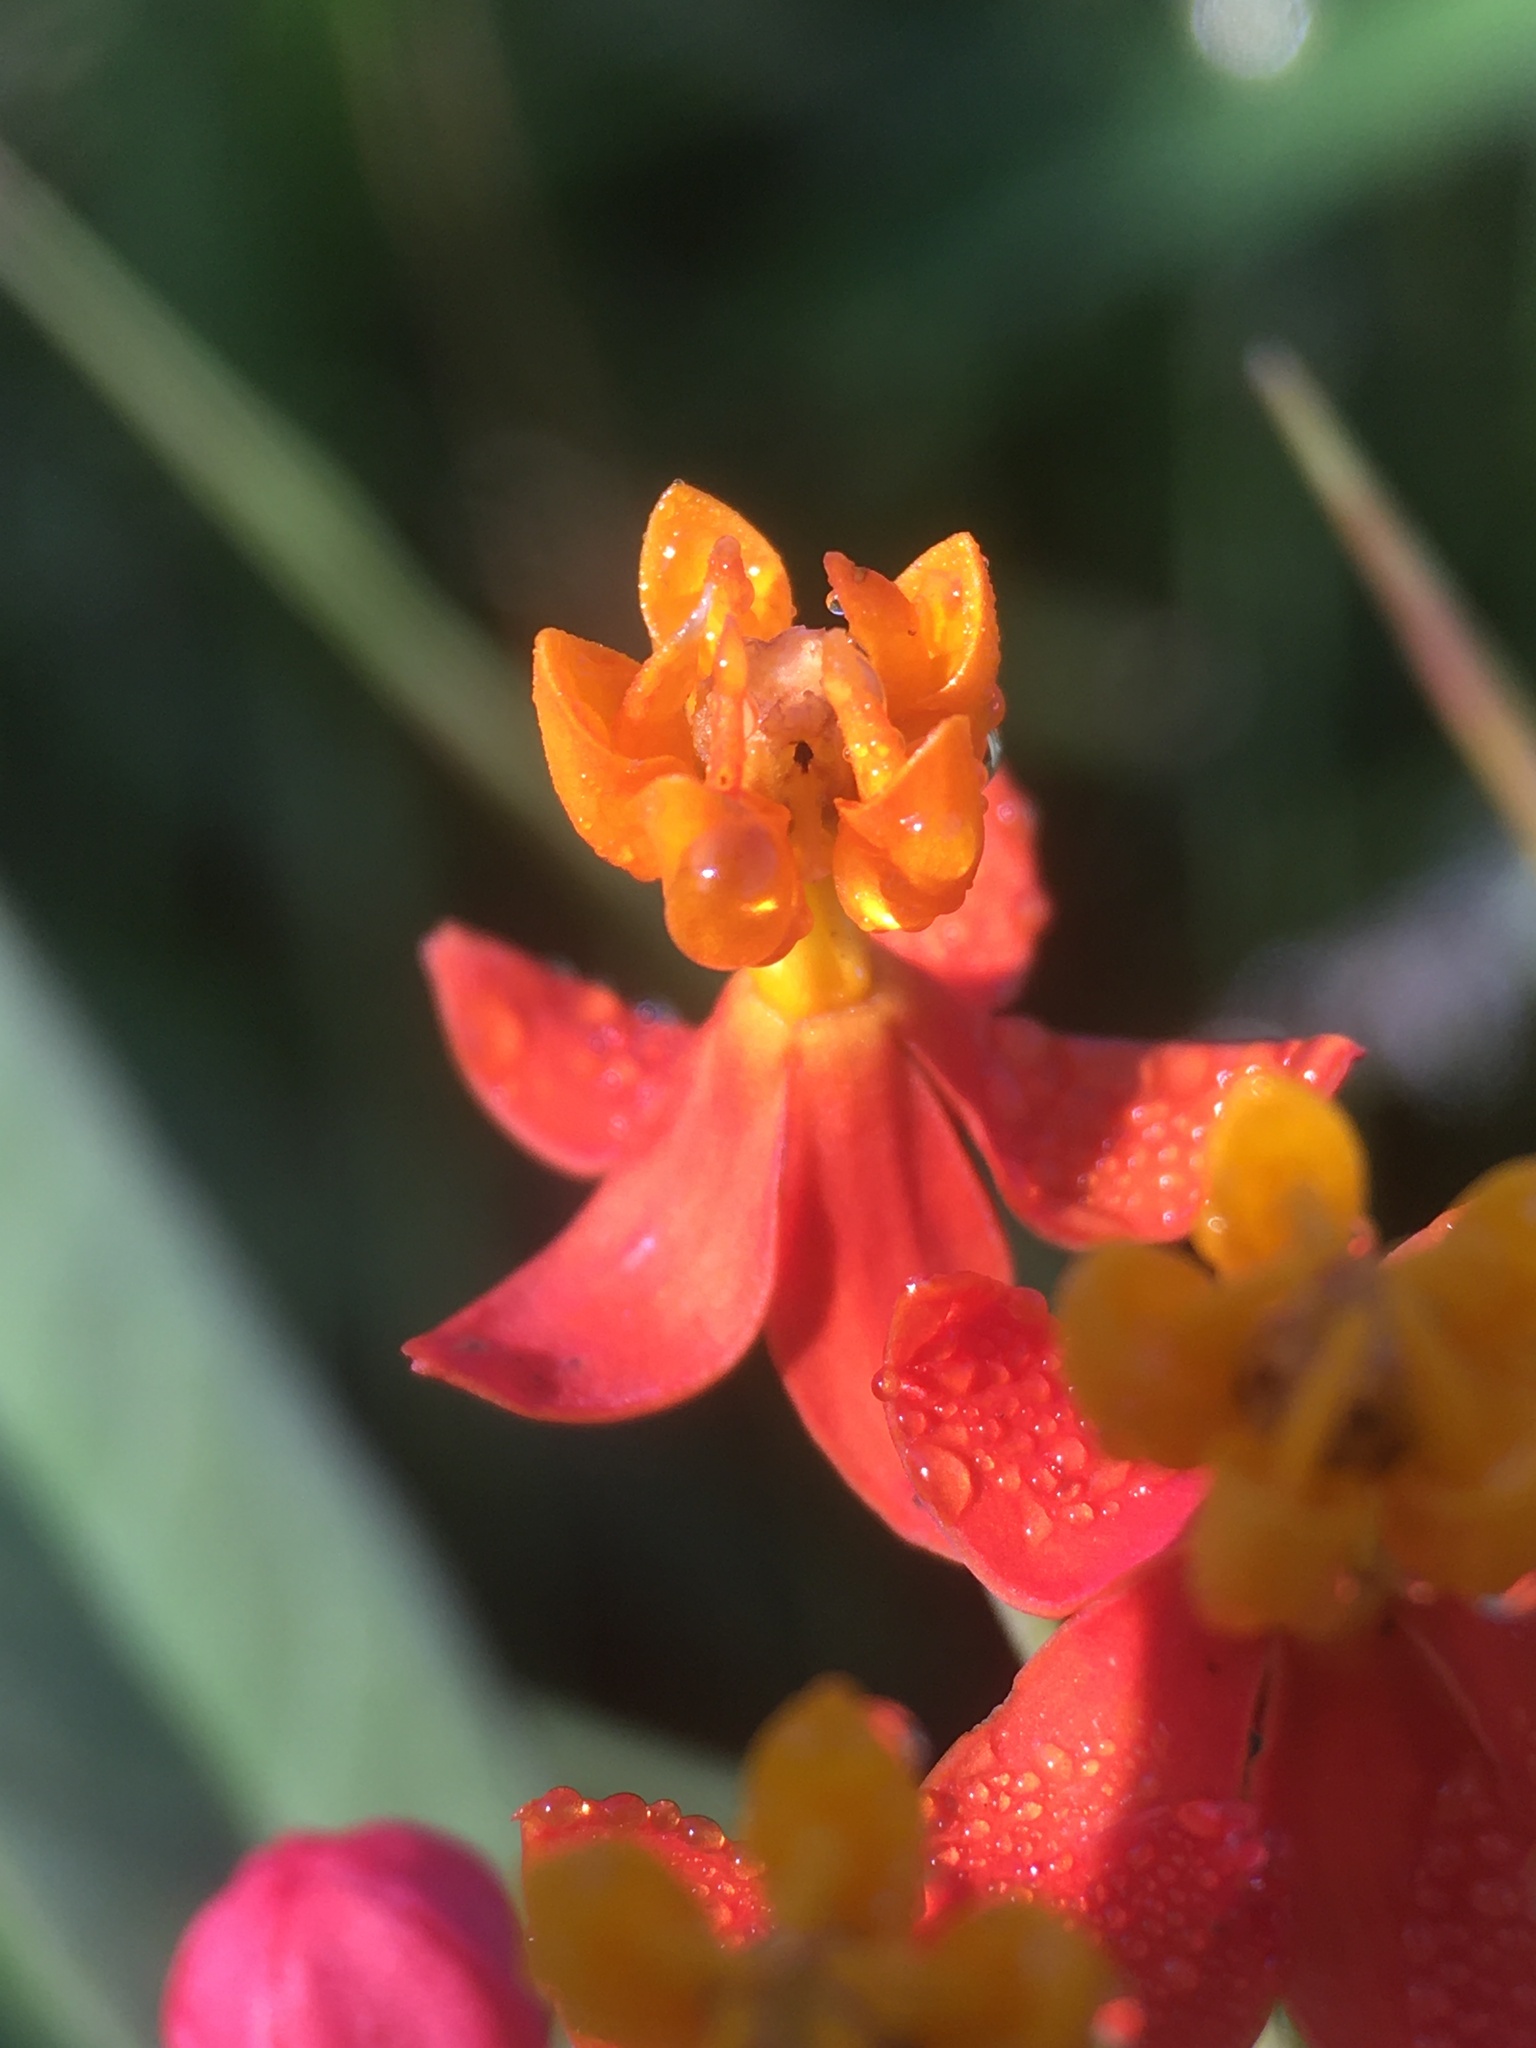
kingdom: Plantae
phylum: Tracheophyta
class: Magnoliopsida
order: Gentianales
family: Apocynaceae
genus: Asclepias
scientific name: Asclepias curassavica
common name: Bloodflower
